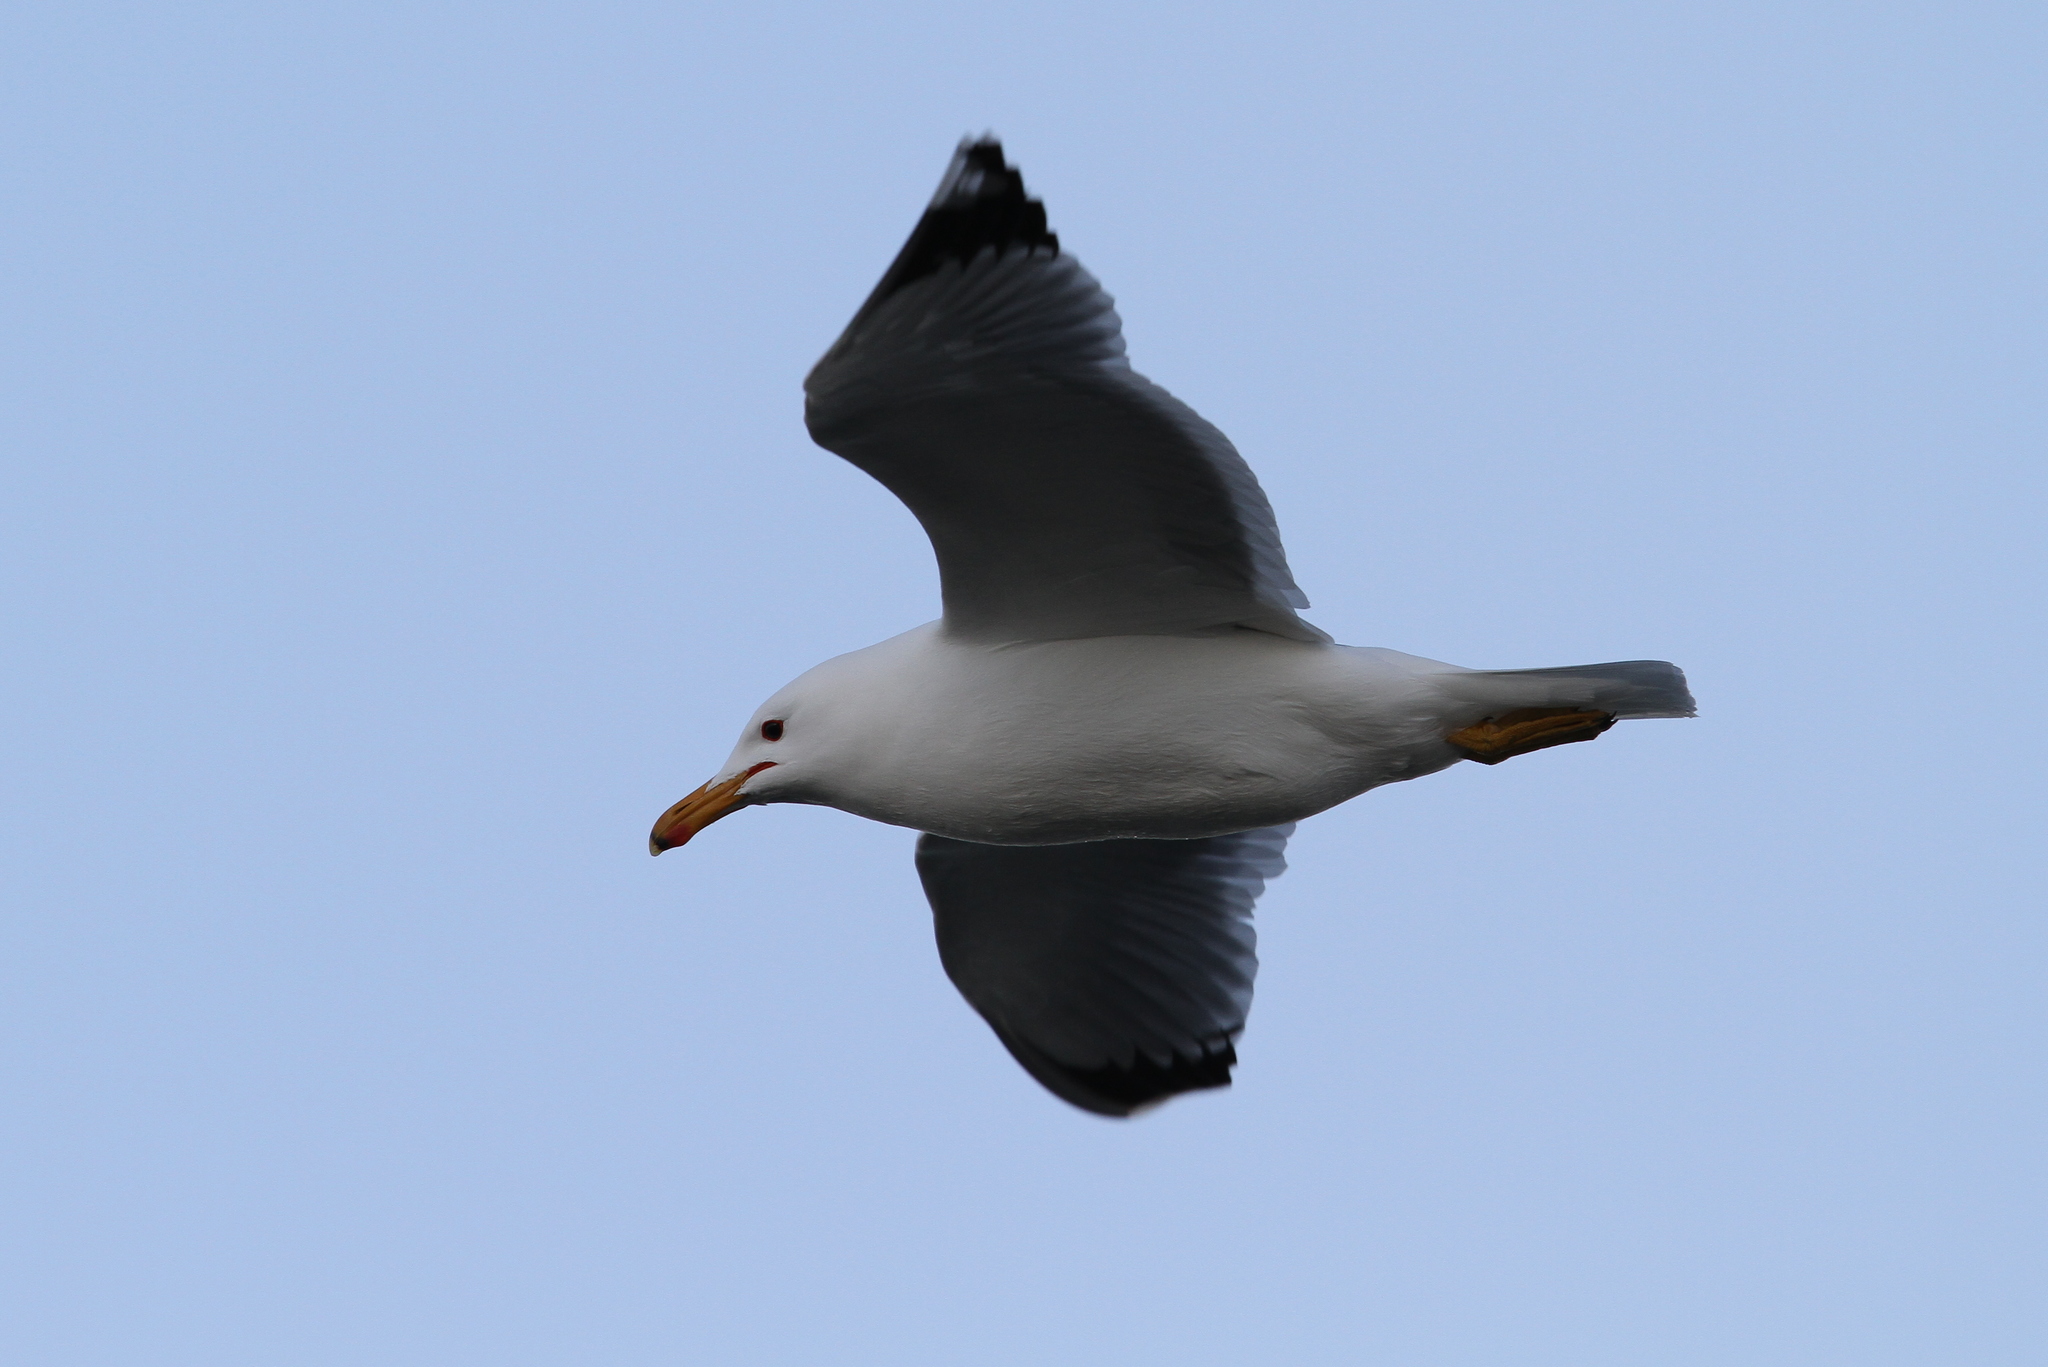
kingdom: Animalia
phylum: Chordata
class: Aves
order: Charadriiformes
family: Laridae
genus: Larus
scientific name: Larus californicus
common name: California gull
